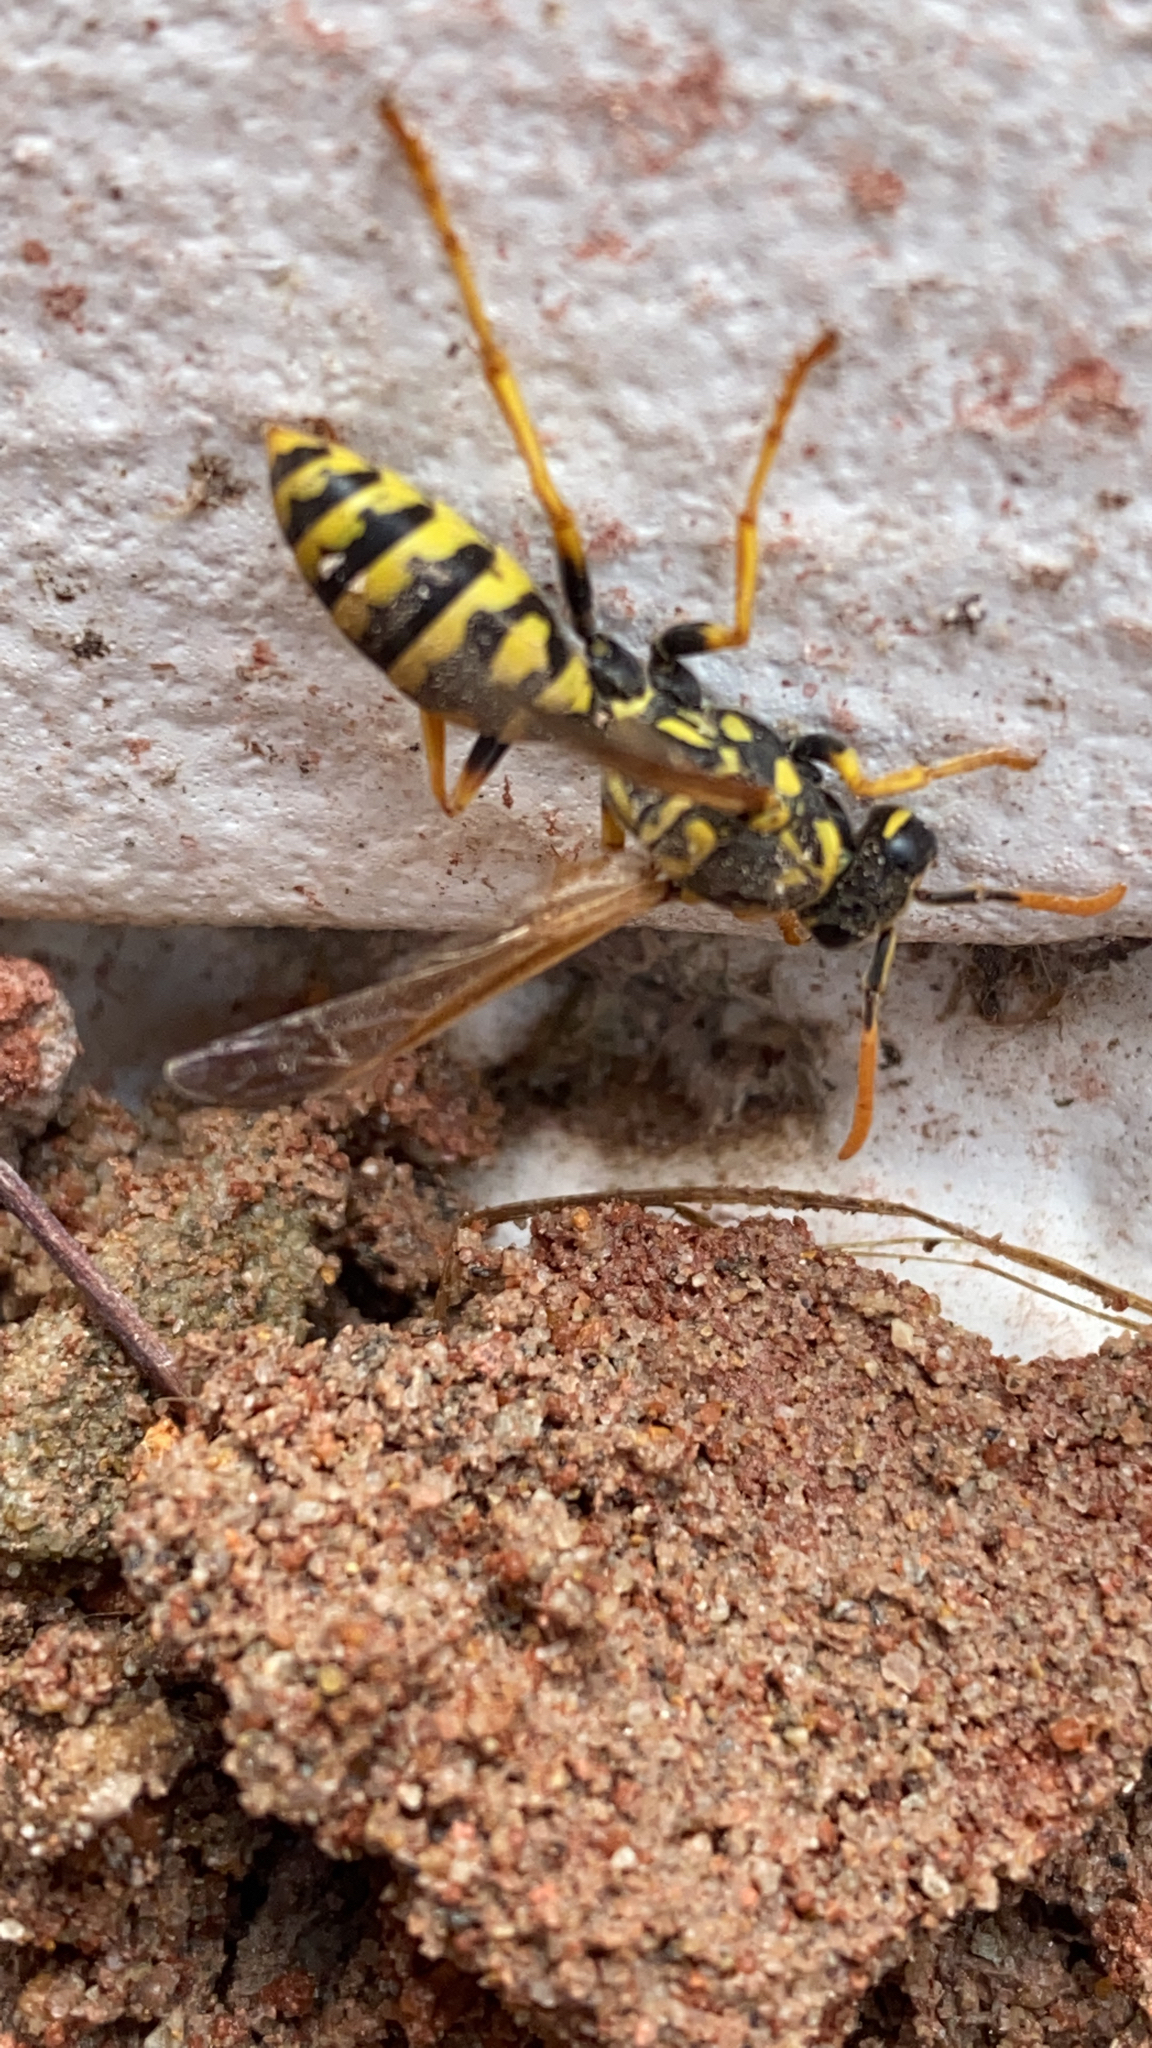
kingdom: Animalia
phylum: Arthropoda
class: Insecta
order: Hymenoptera
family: Eumenidae
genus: Polistes
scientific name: Polistes dominula
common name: Paper wasp
